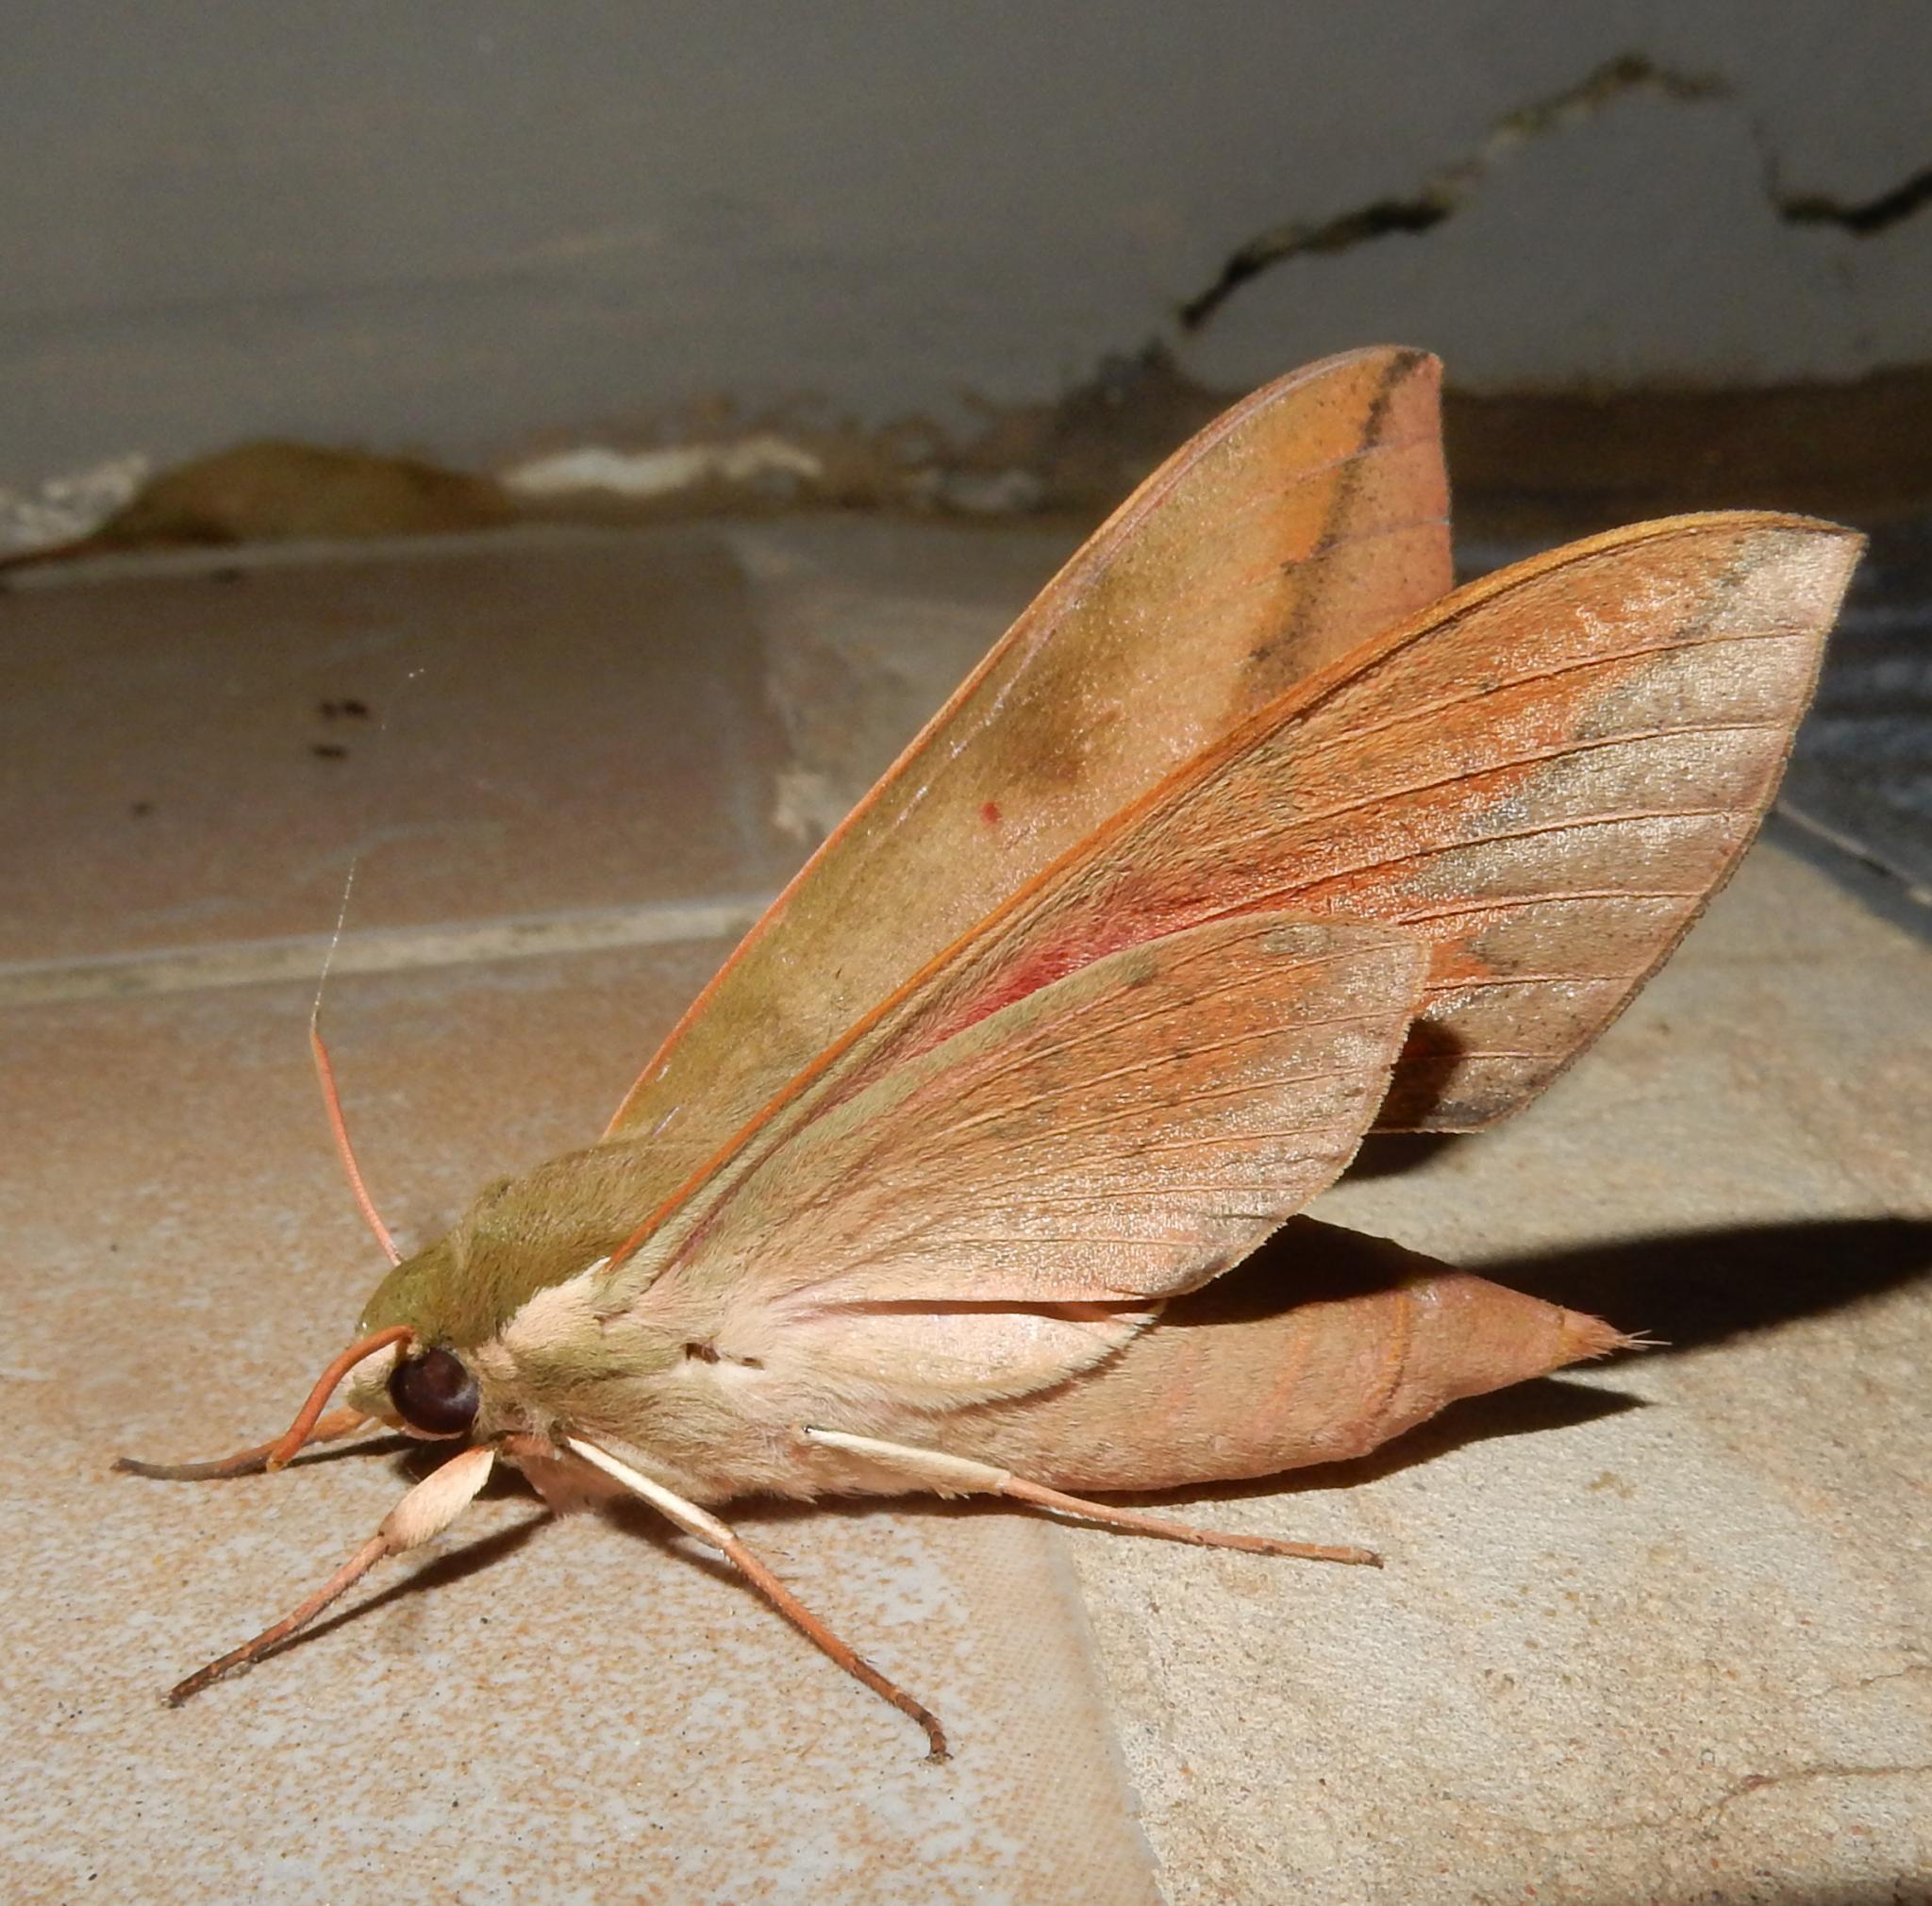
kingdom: Animalia
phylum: Arthropoda
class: Insecta
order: Lepidoptera
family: Sphingidae
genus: Theretra
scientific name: Theretra capensis
